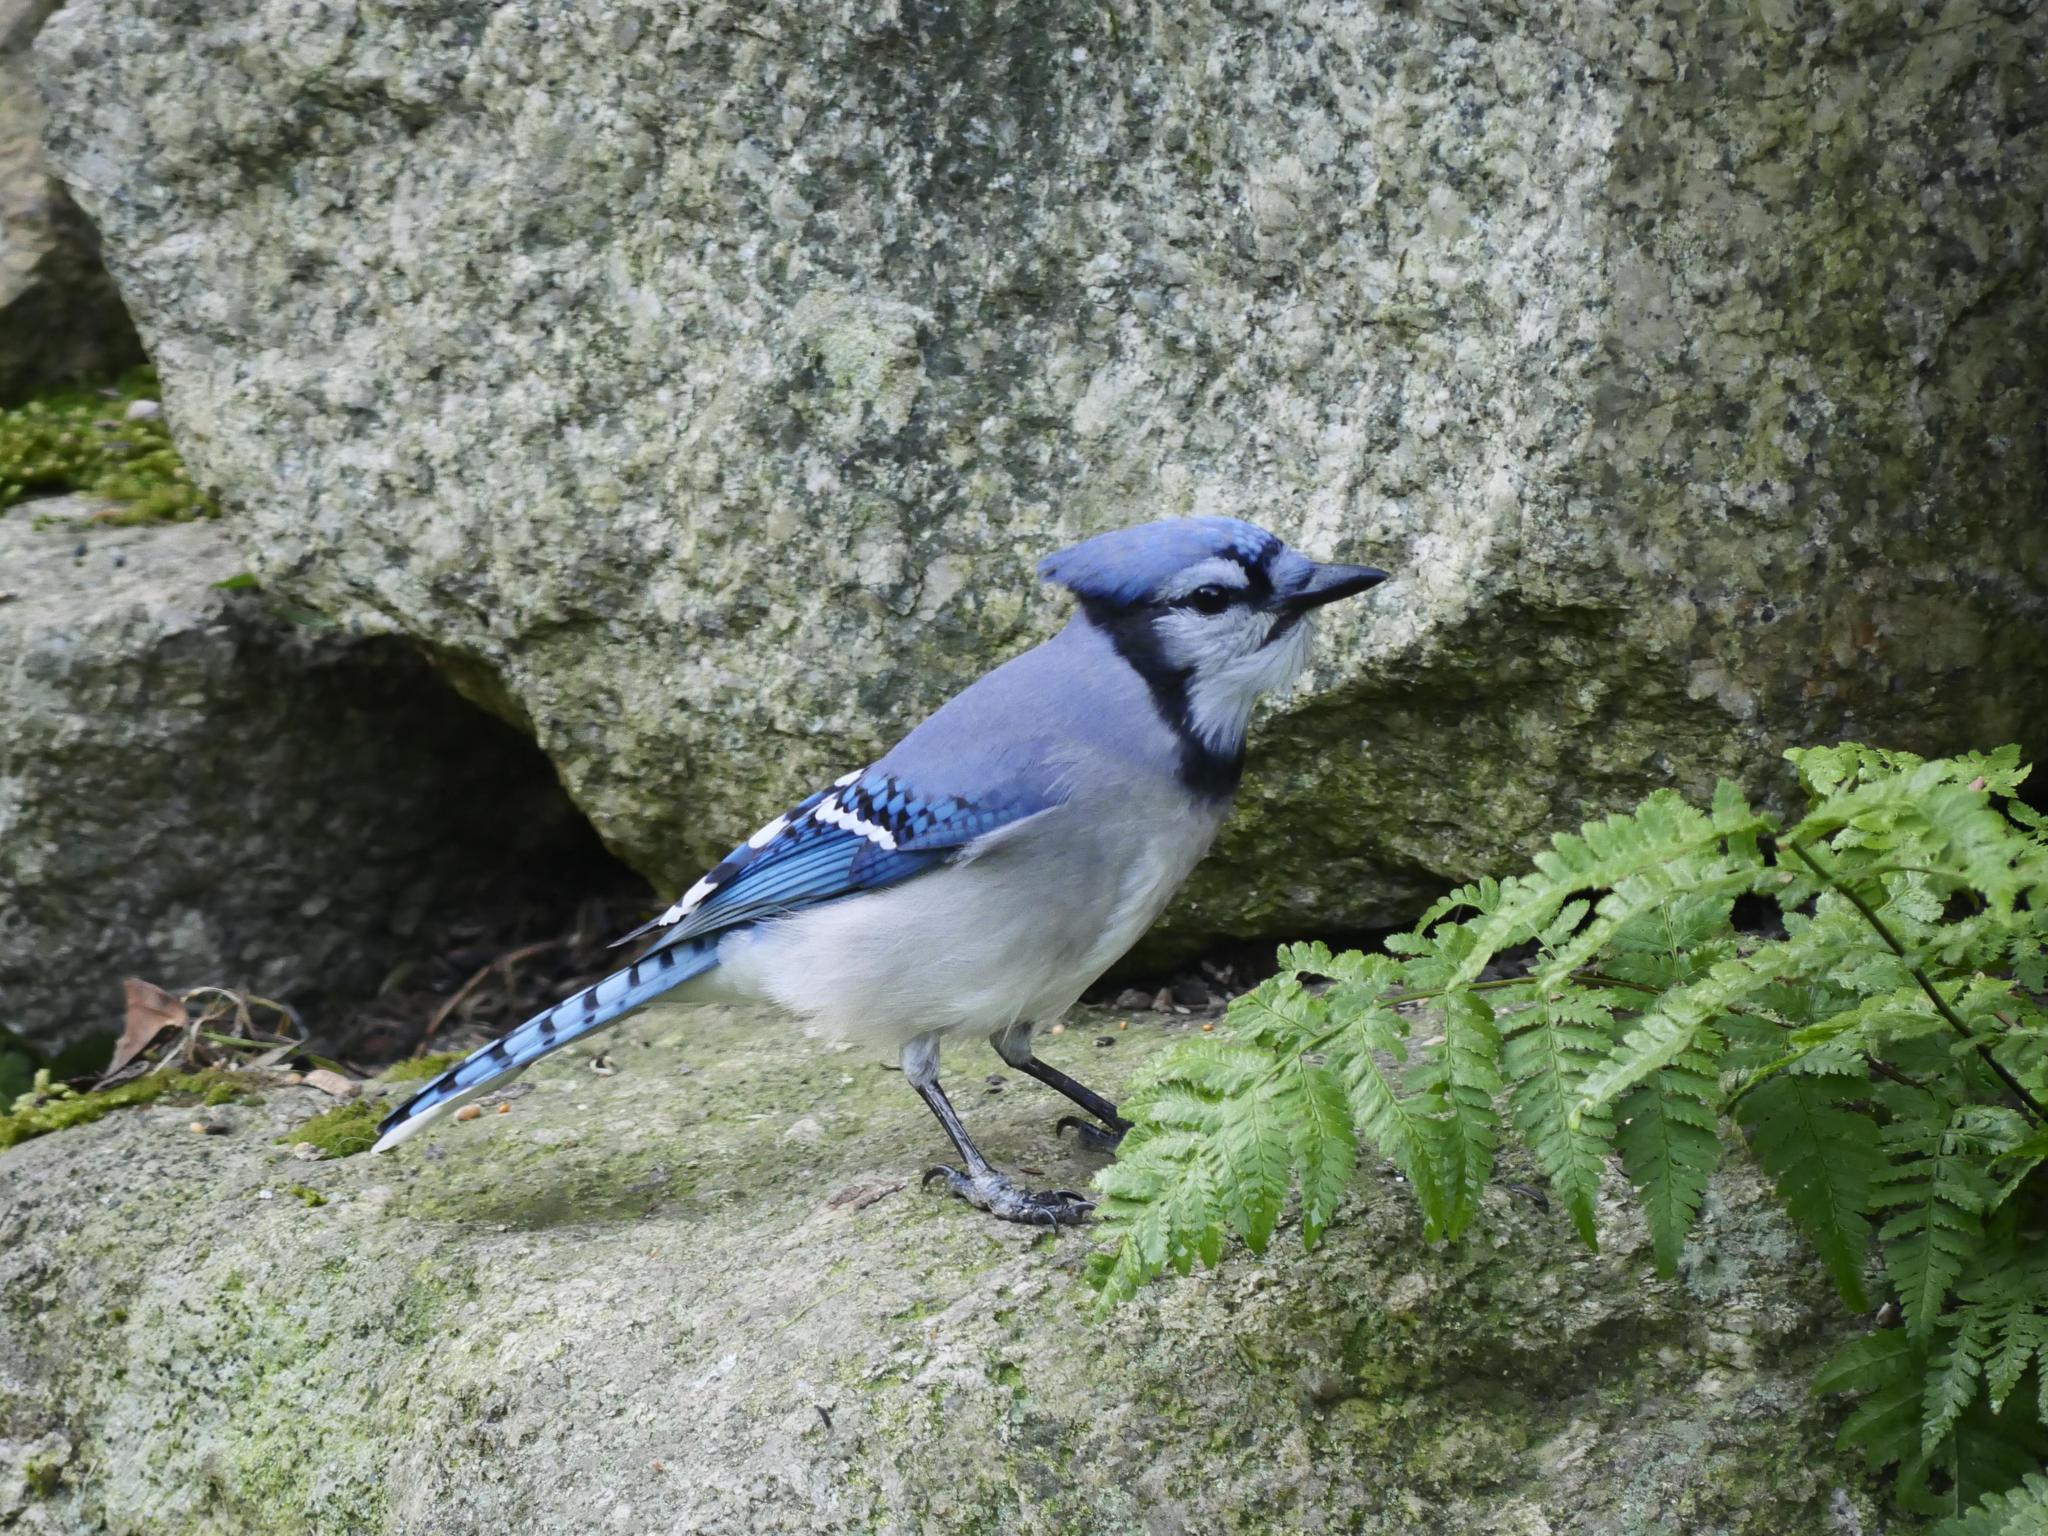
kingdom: Animalia
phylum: Chordata
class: Aves
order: Passeriformes
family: Corvidae
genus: Cyanocitta
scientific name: Cyanocitta cristata
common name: Blue jay
